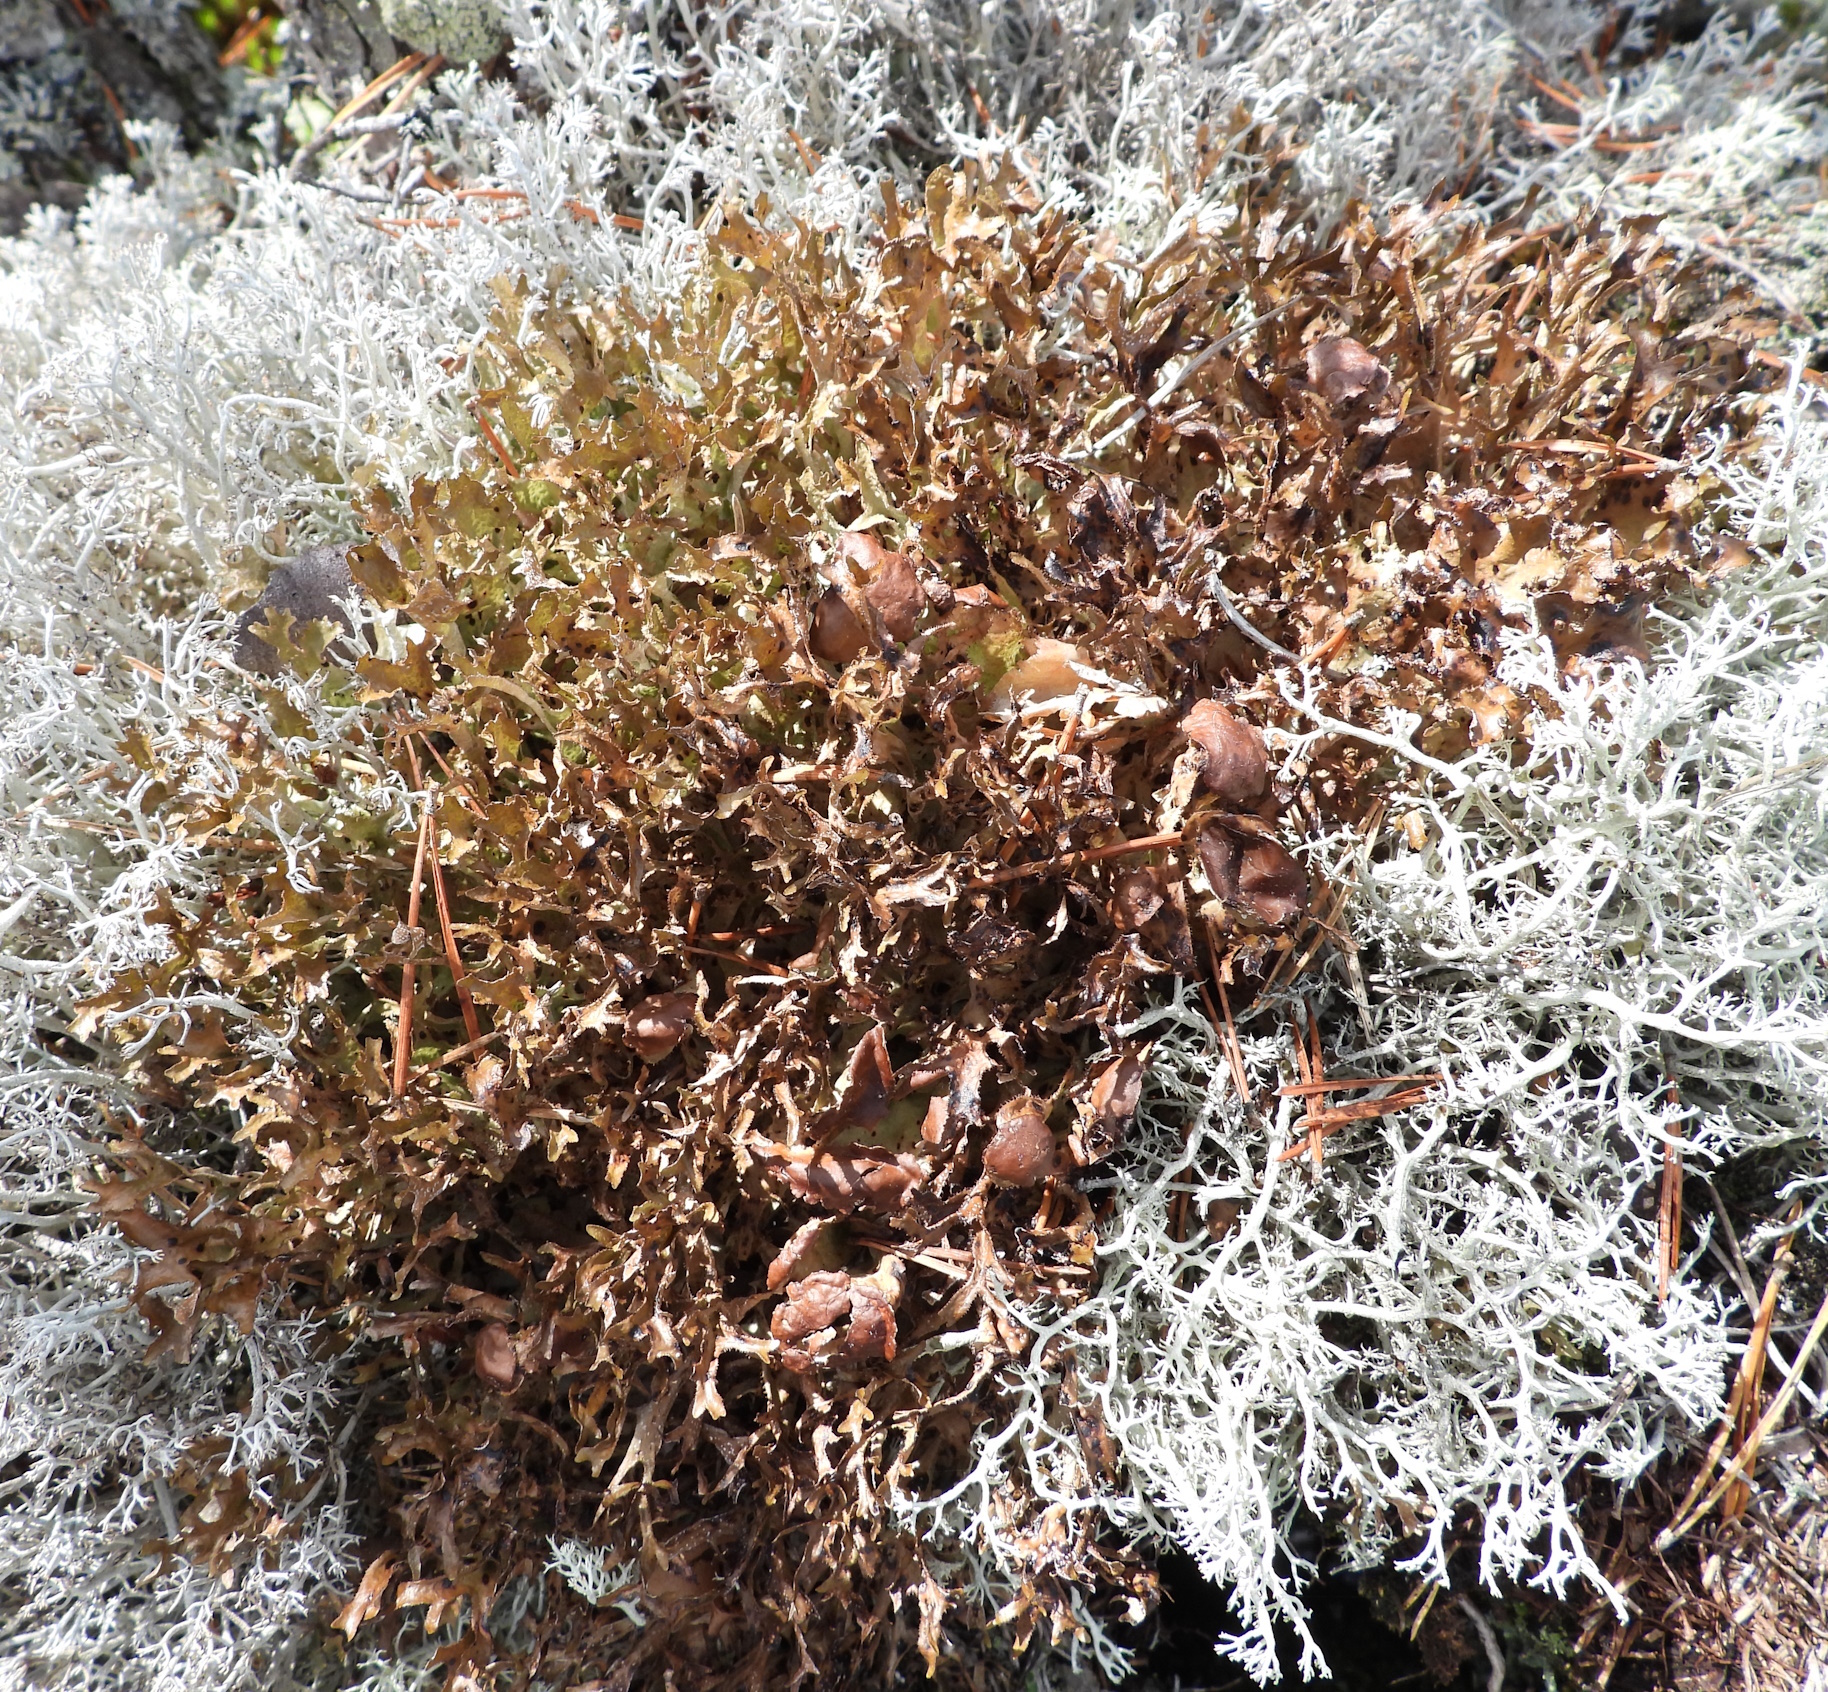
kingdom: Fungi
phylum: Ascomycota
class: Lecanoromycetes
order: Lecanorales
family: Parmeliaceae
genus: Cetraria
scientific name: Cetraria islandica
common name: Iceland lichen
